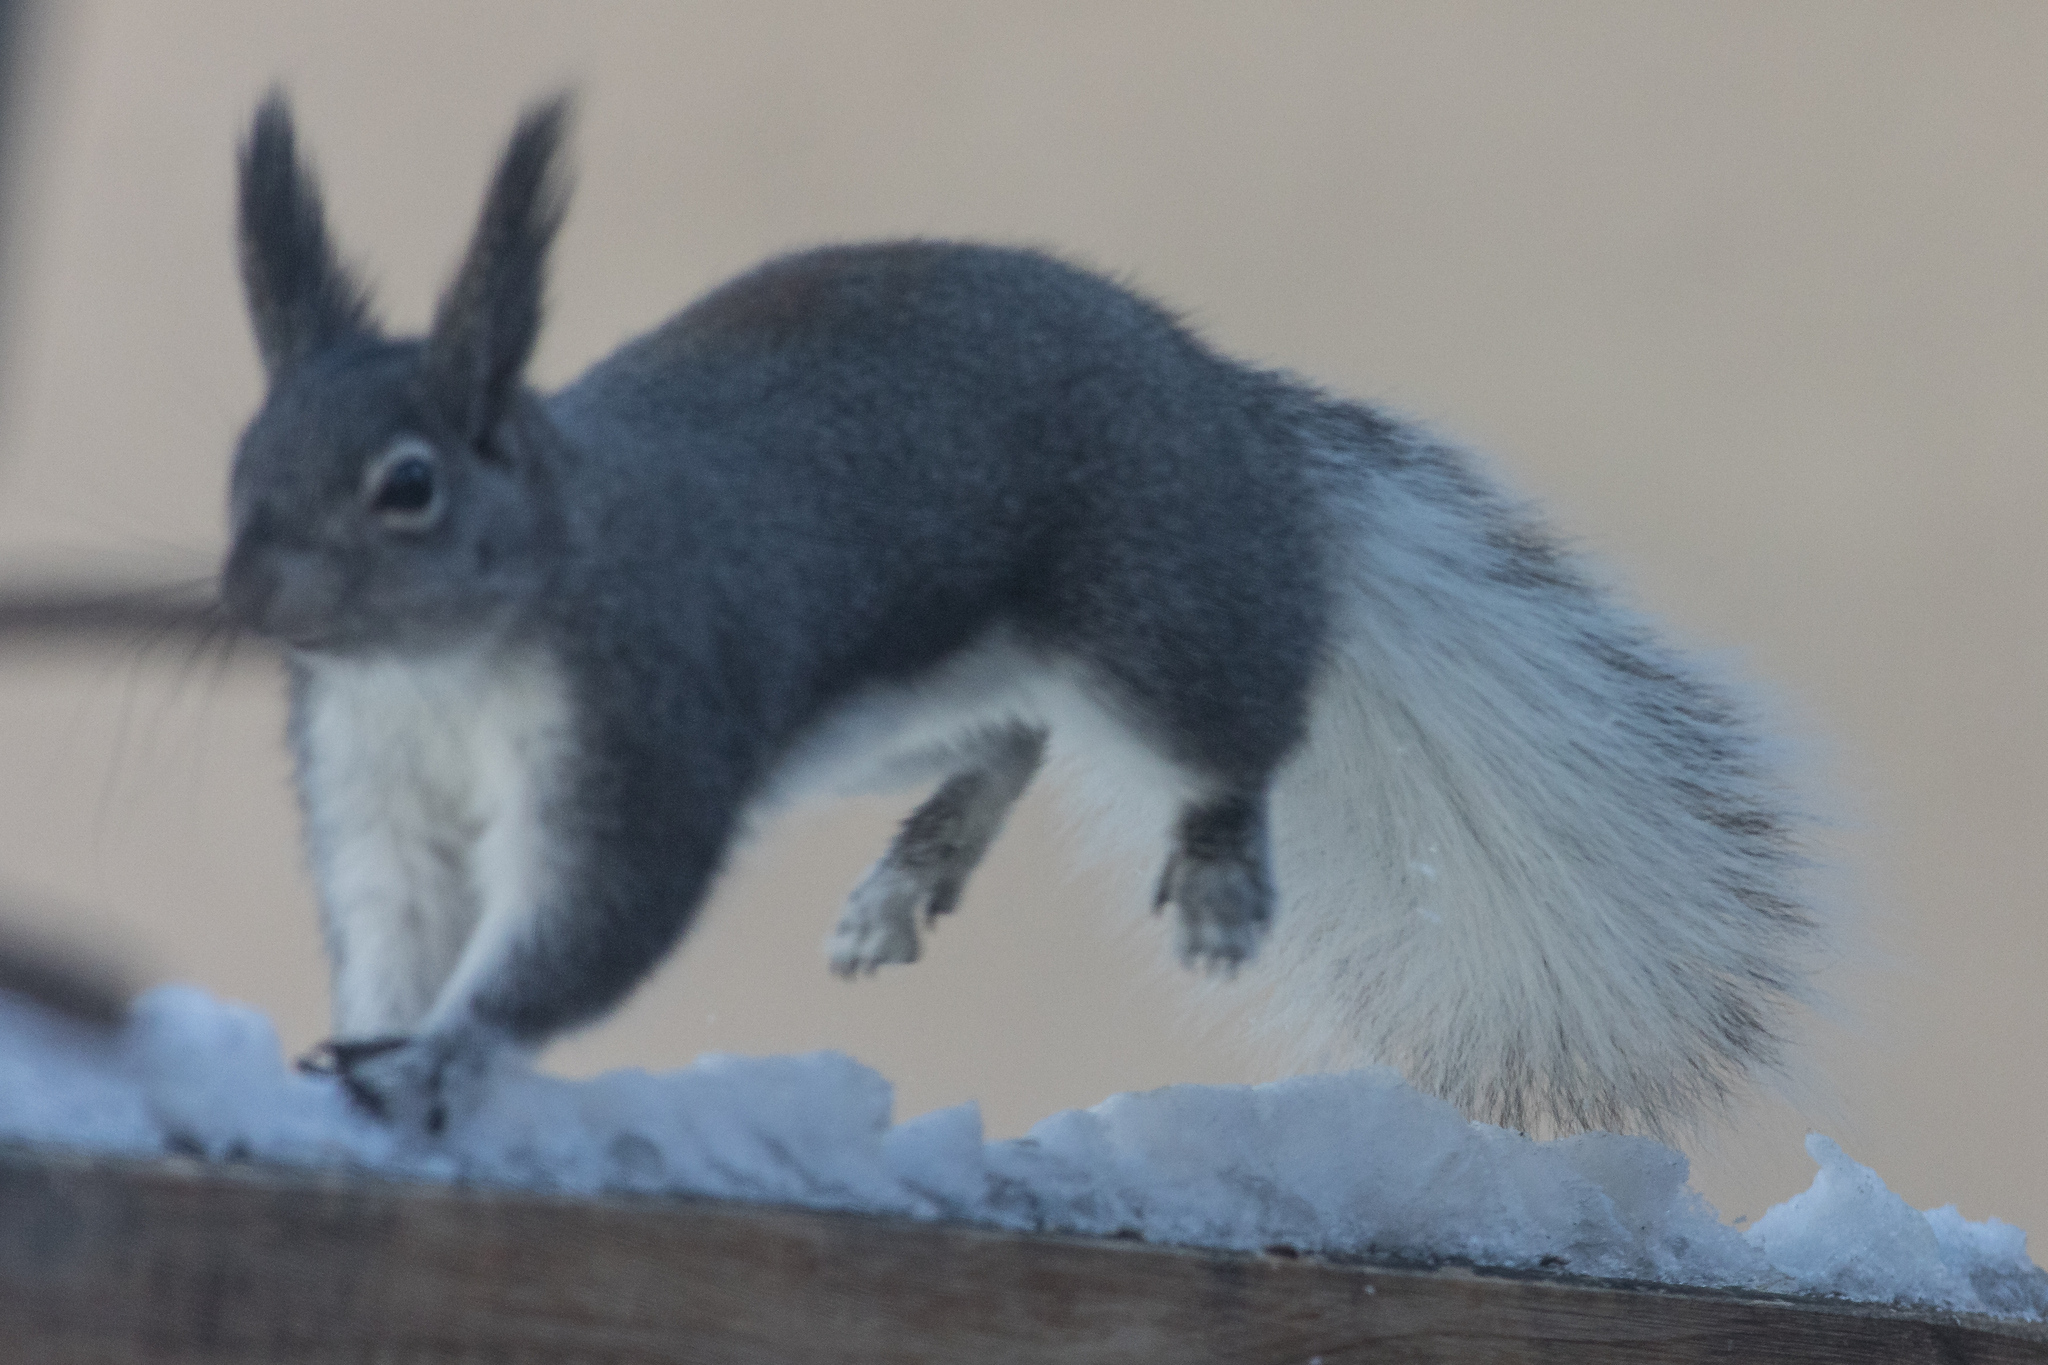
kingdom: Animalia
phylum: Chordata
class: Mammalia
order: Rodentia
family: Sciuridae
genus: Sciurus
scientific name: Sciurus aberti
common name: Abert's squirrel
